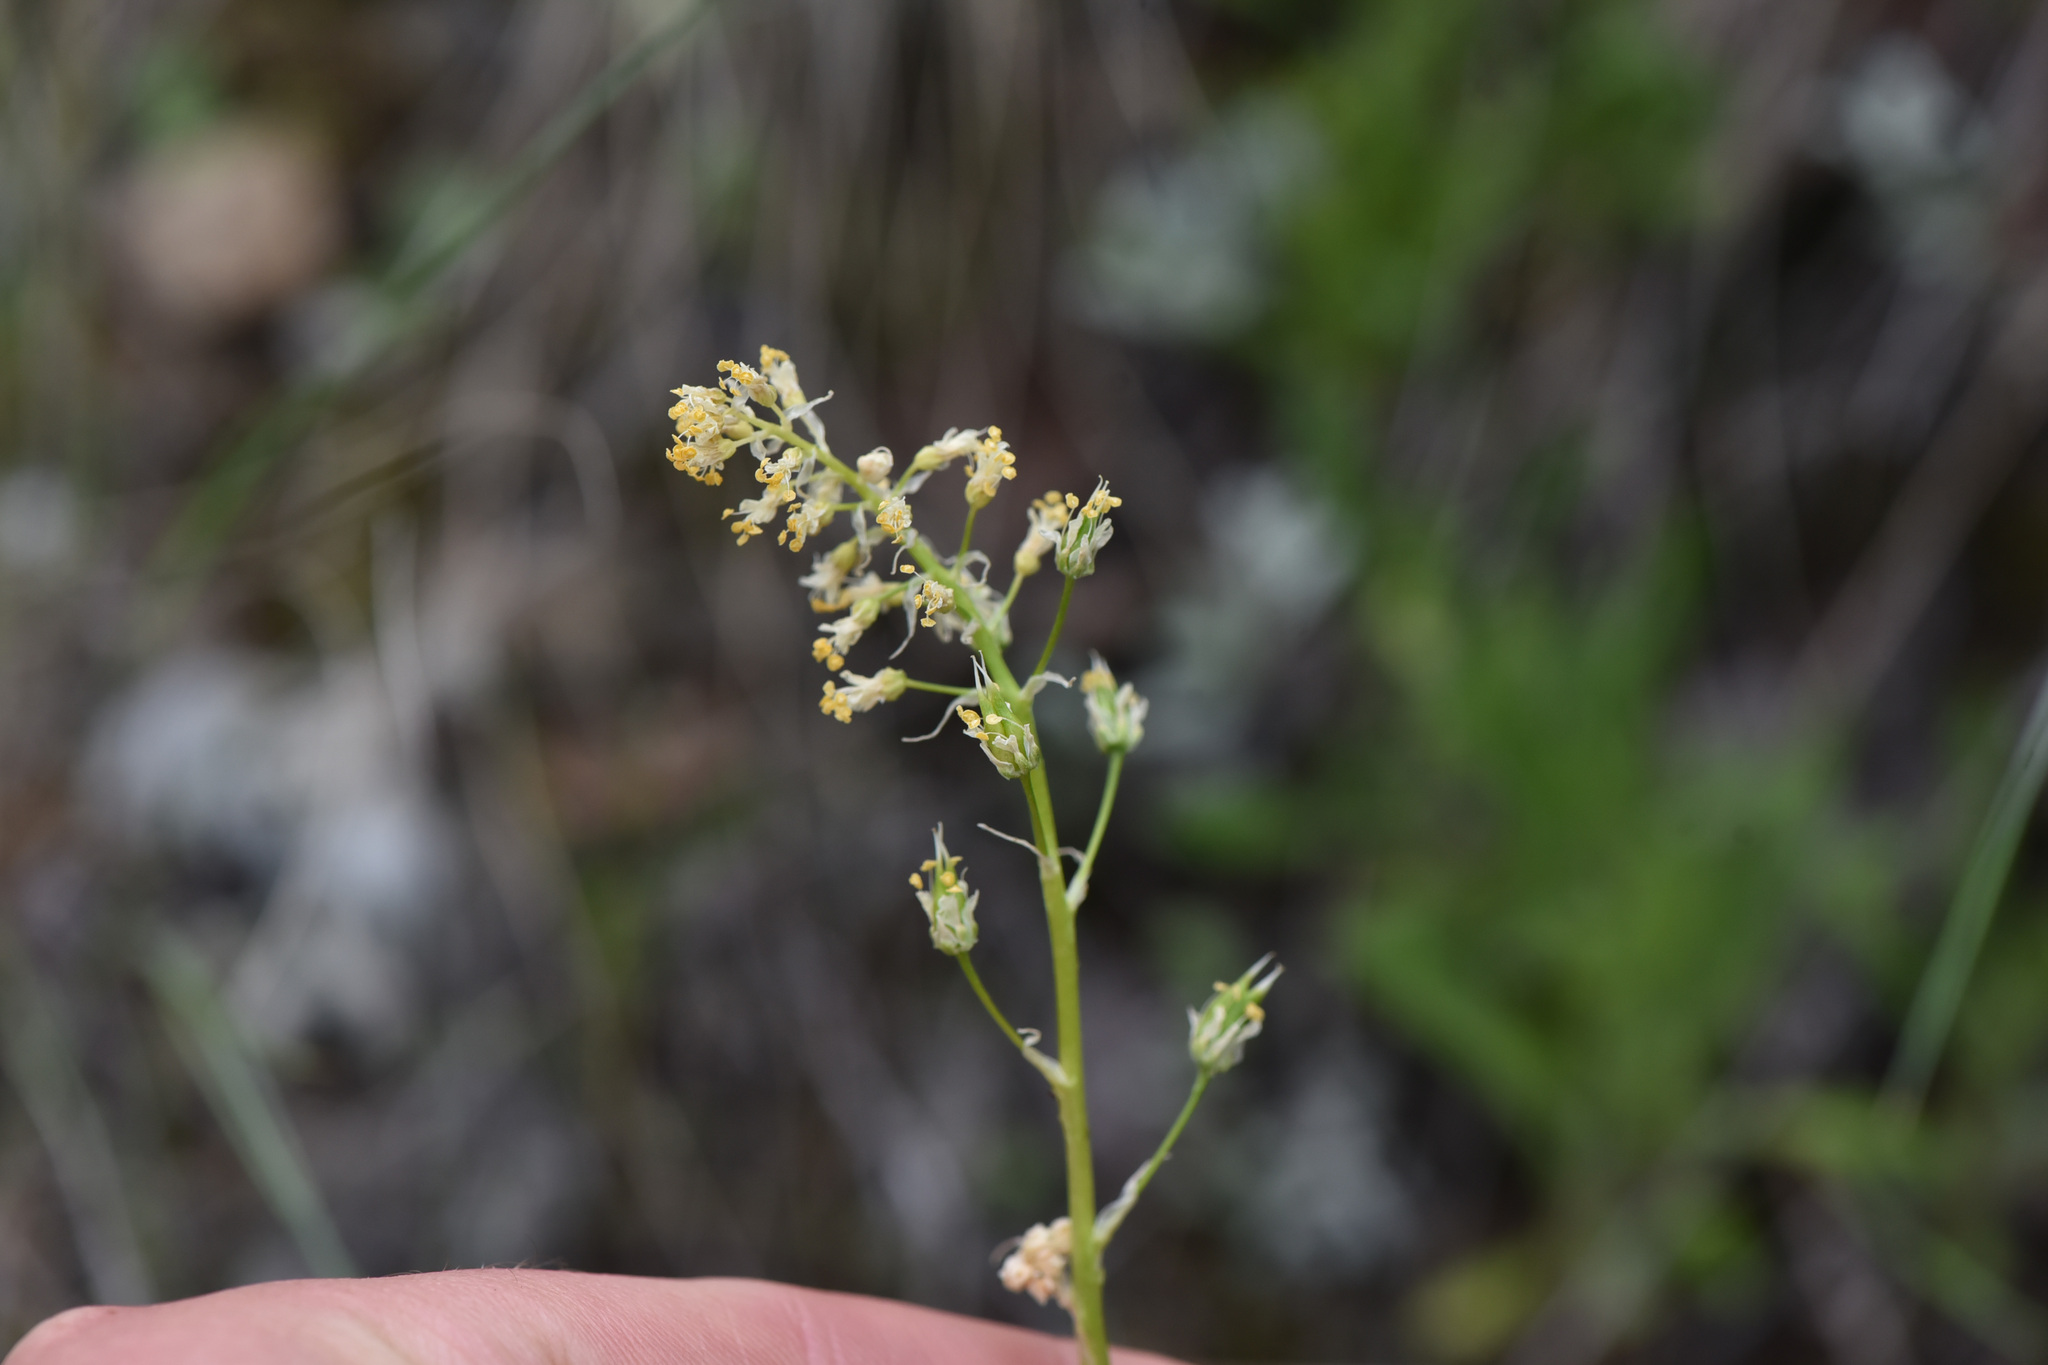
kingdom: Plantae
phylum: Tracheophyta
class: Liliopsida
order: Liliales
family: Melanthiaceae
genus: Toxicoscordion
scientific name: Toxicoscordion venenosum
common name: Meadow death camas
